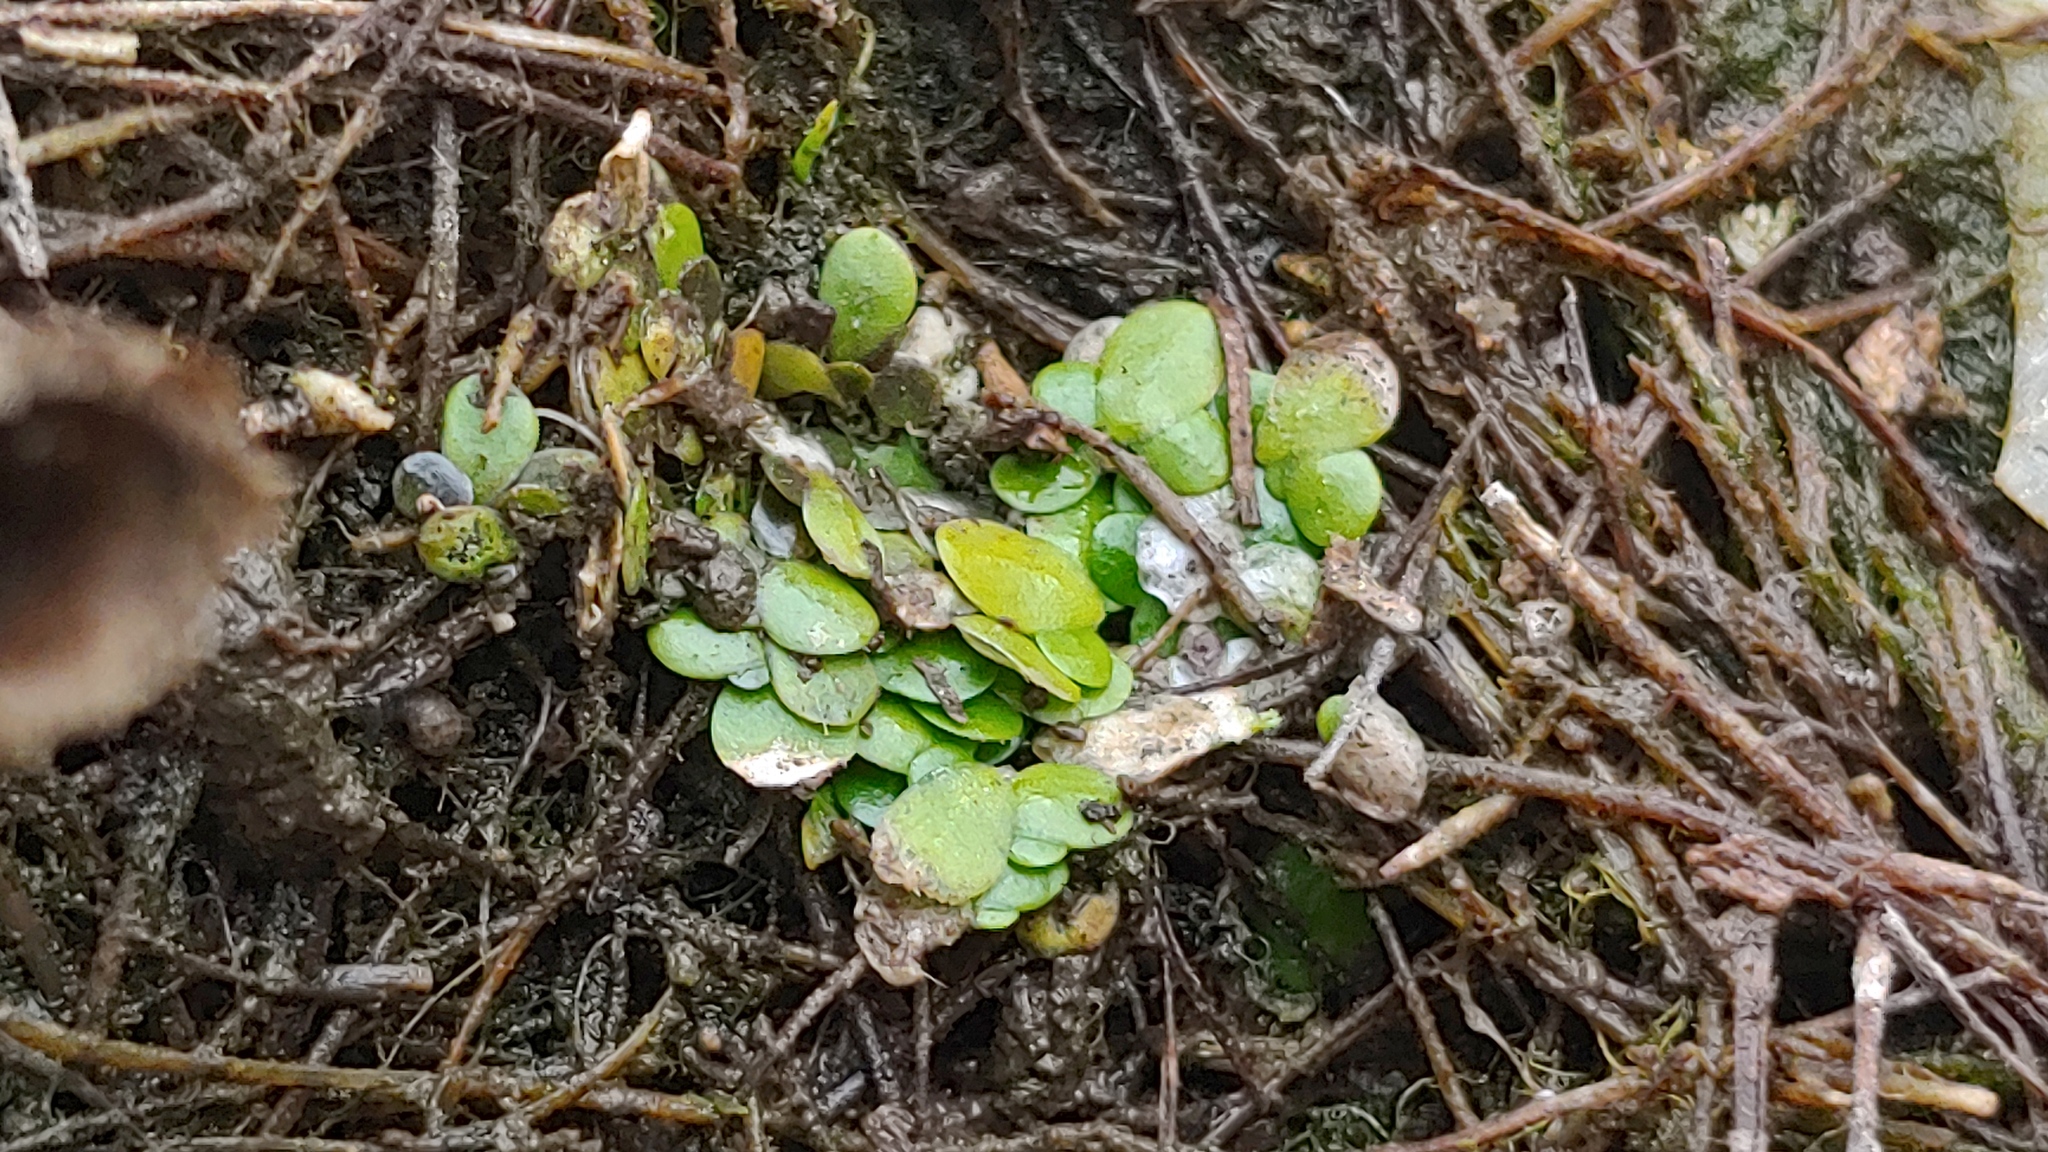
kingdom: Plantae
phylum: Tracheophyta
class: Liliopsida
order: Alismatales
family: Araceae
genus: Lemna
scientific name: Lemna minuta
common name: Least duckweed
